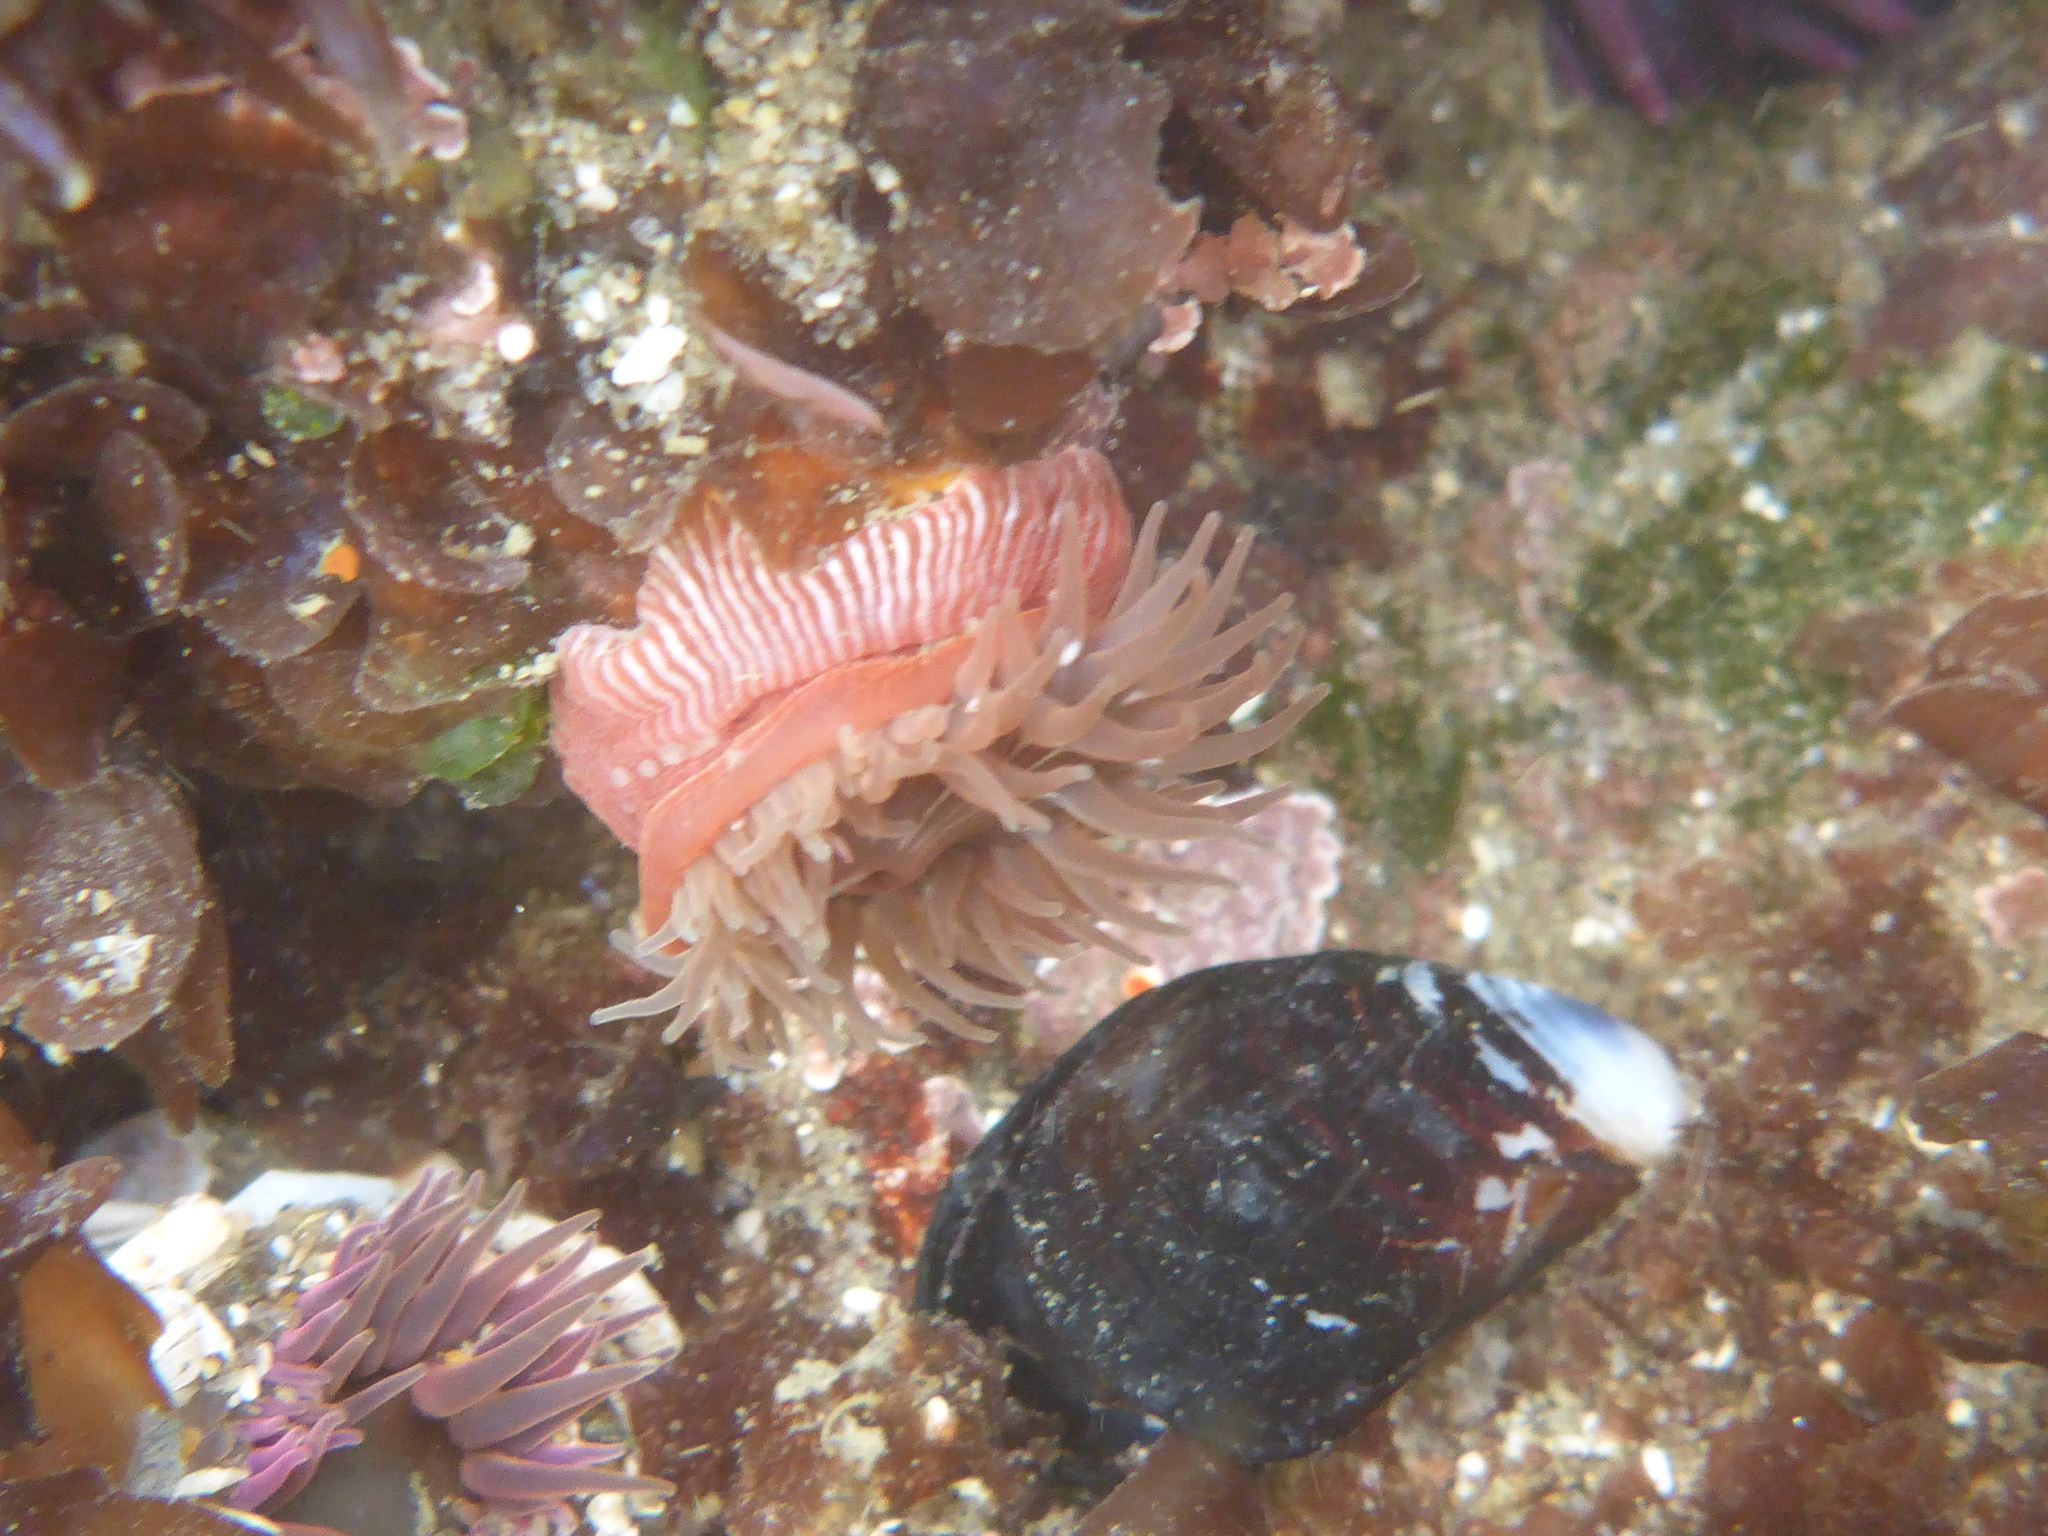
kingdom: Animalia
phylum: Cnidaria
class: Anthozoa
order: Actiniaria
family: Actiniidae
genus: Epiactis
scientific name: Epiactis prolifera
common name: Brooding anemone
